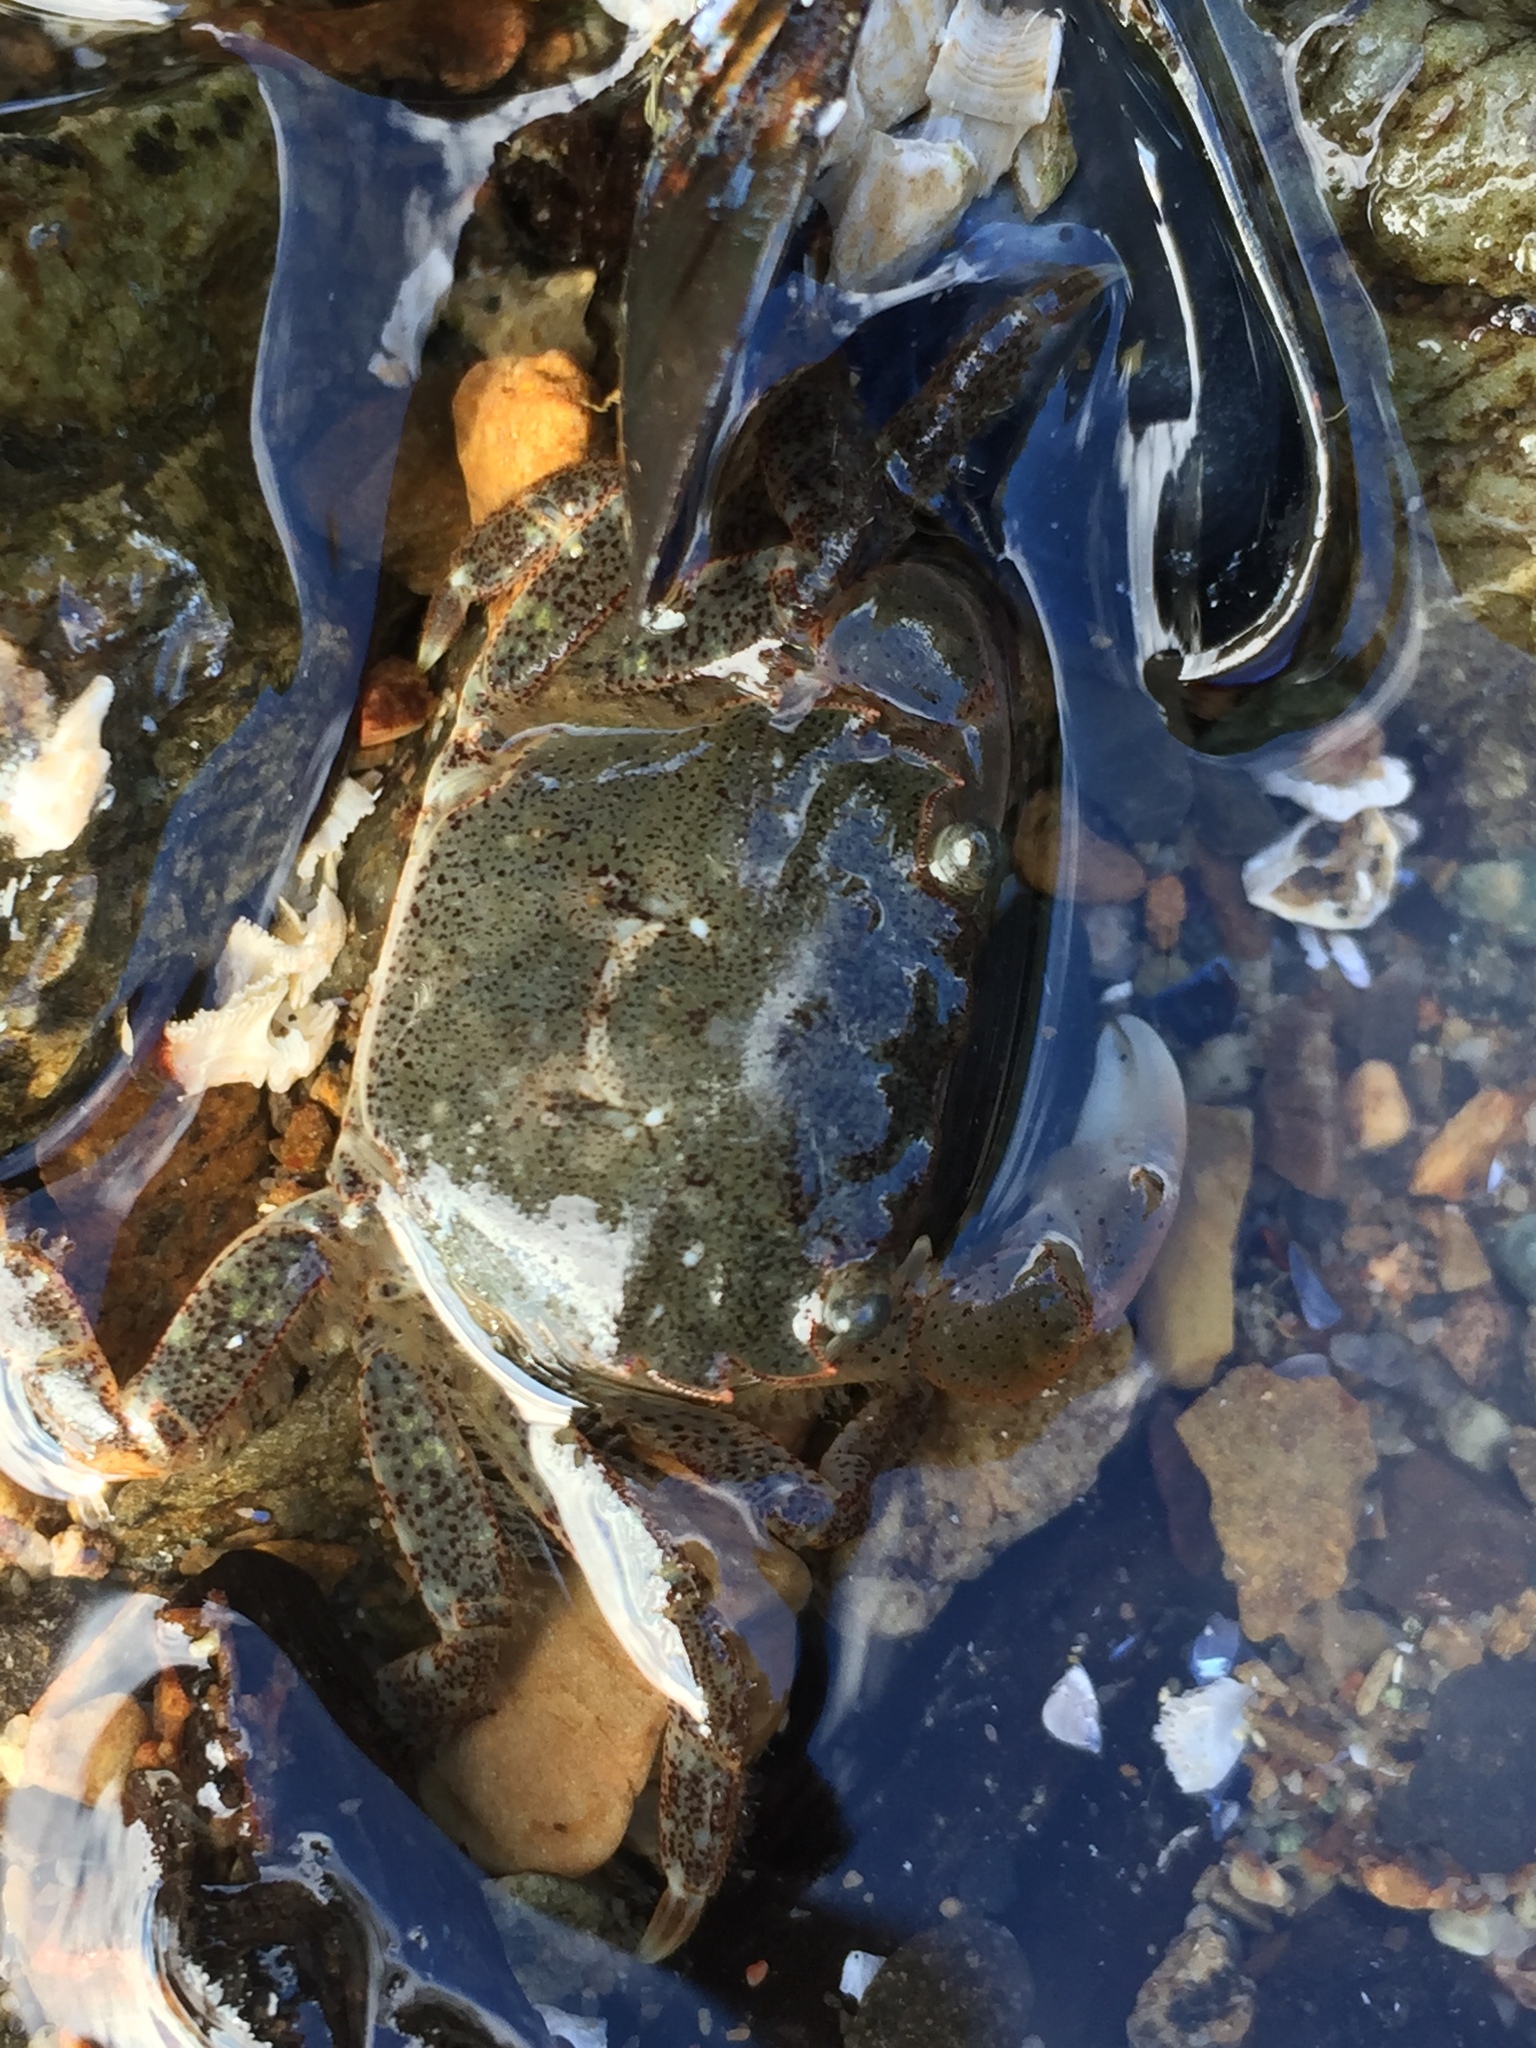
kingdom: Animalia
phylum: Arthropoda
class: Malacostraca
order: Decapoda
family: Varunidae
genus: Hemigrapsus
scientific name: Hemigrapsus oregonensis
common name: Yellow shore crab
